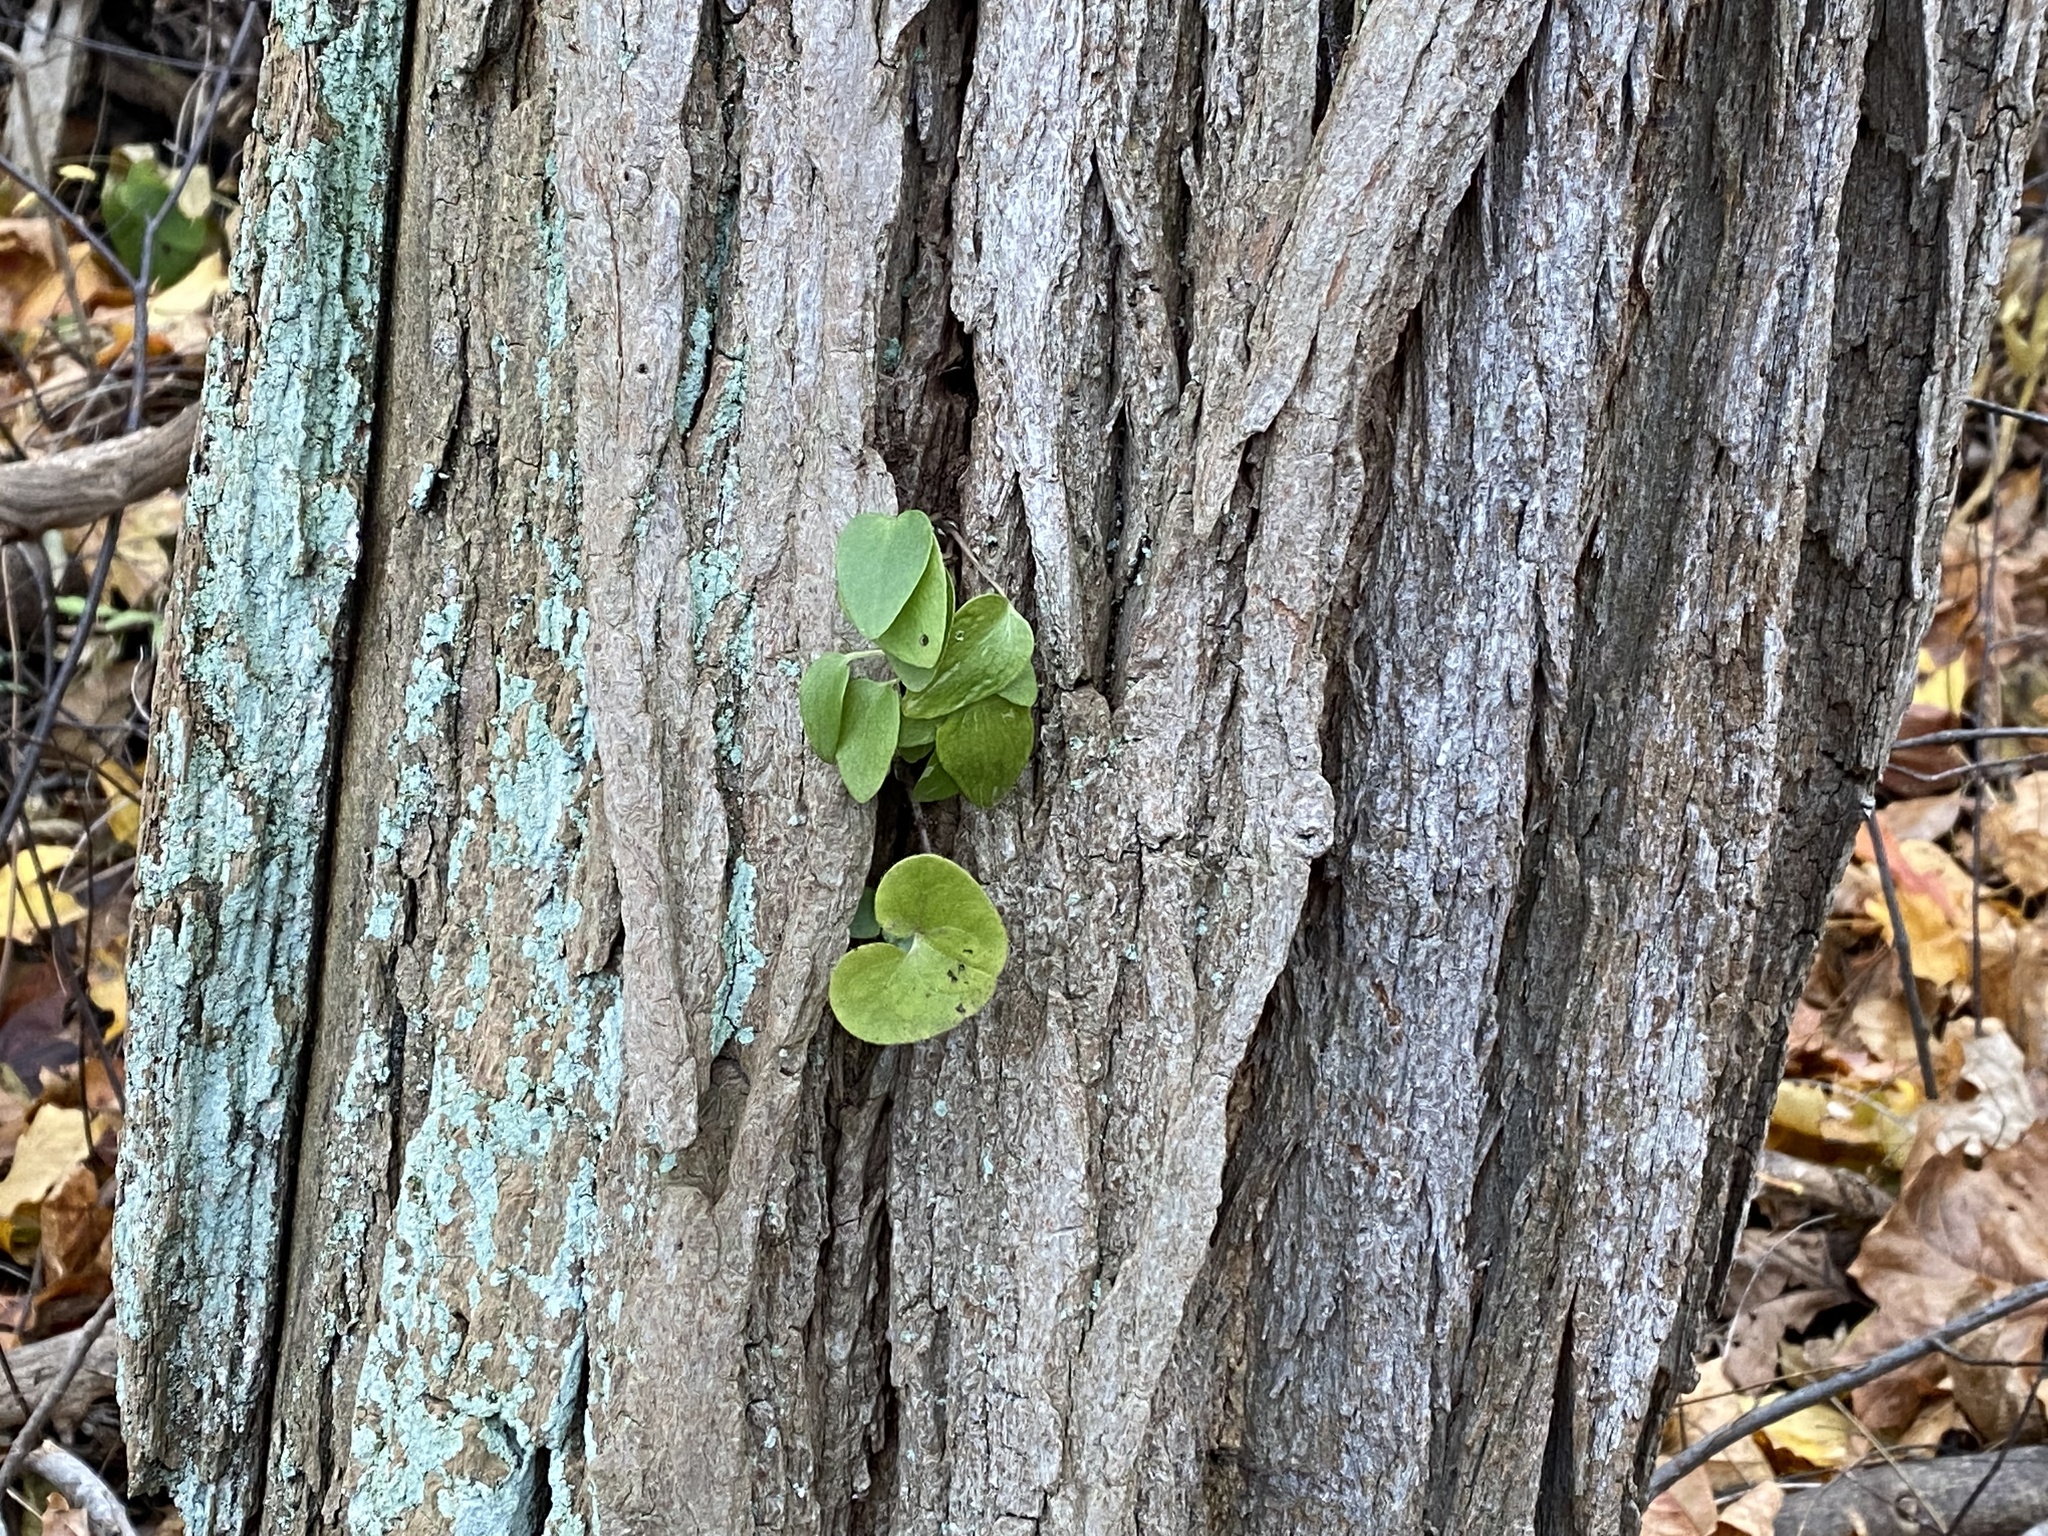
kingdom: Plantae
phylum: Tracheophyta
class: Magnoliopsida
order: Piperales
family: Aristolochiaceae
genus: Asarum
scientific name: Asarum canadense
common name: Wild ginger
